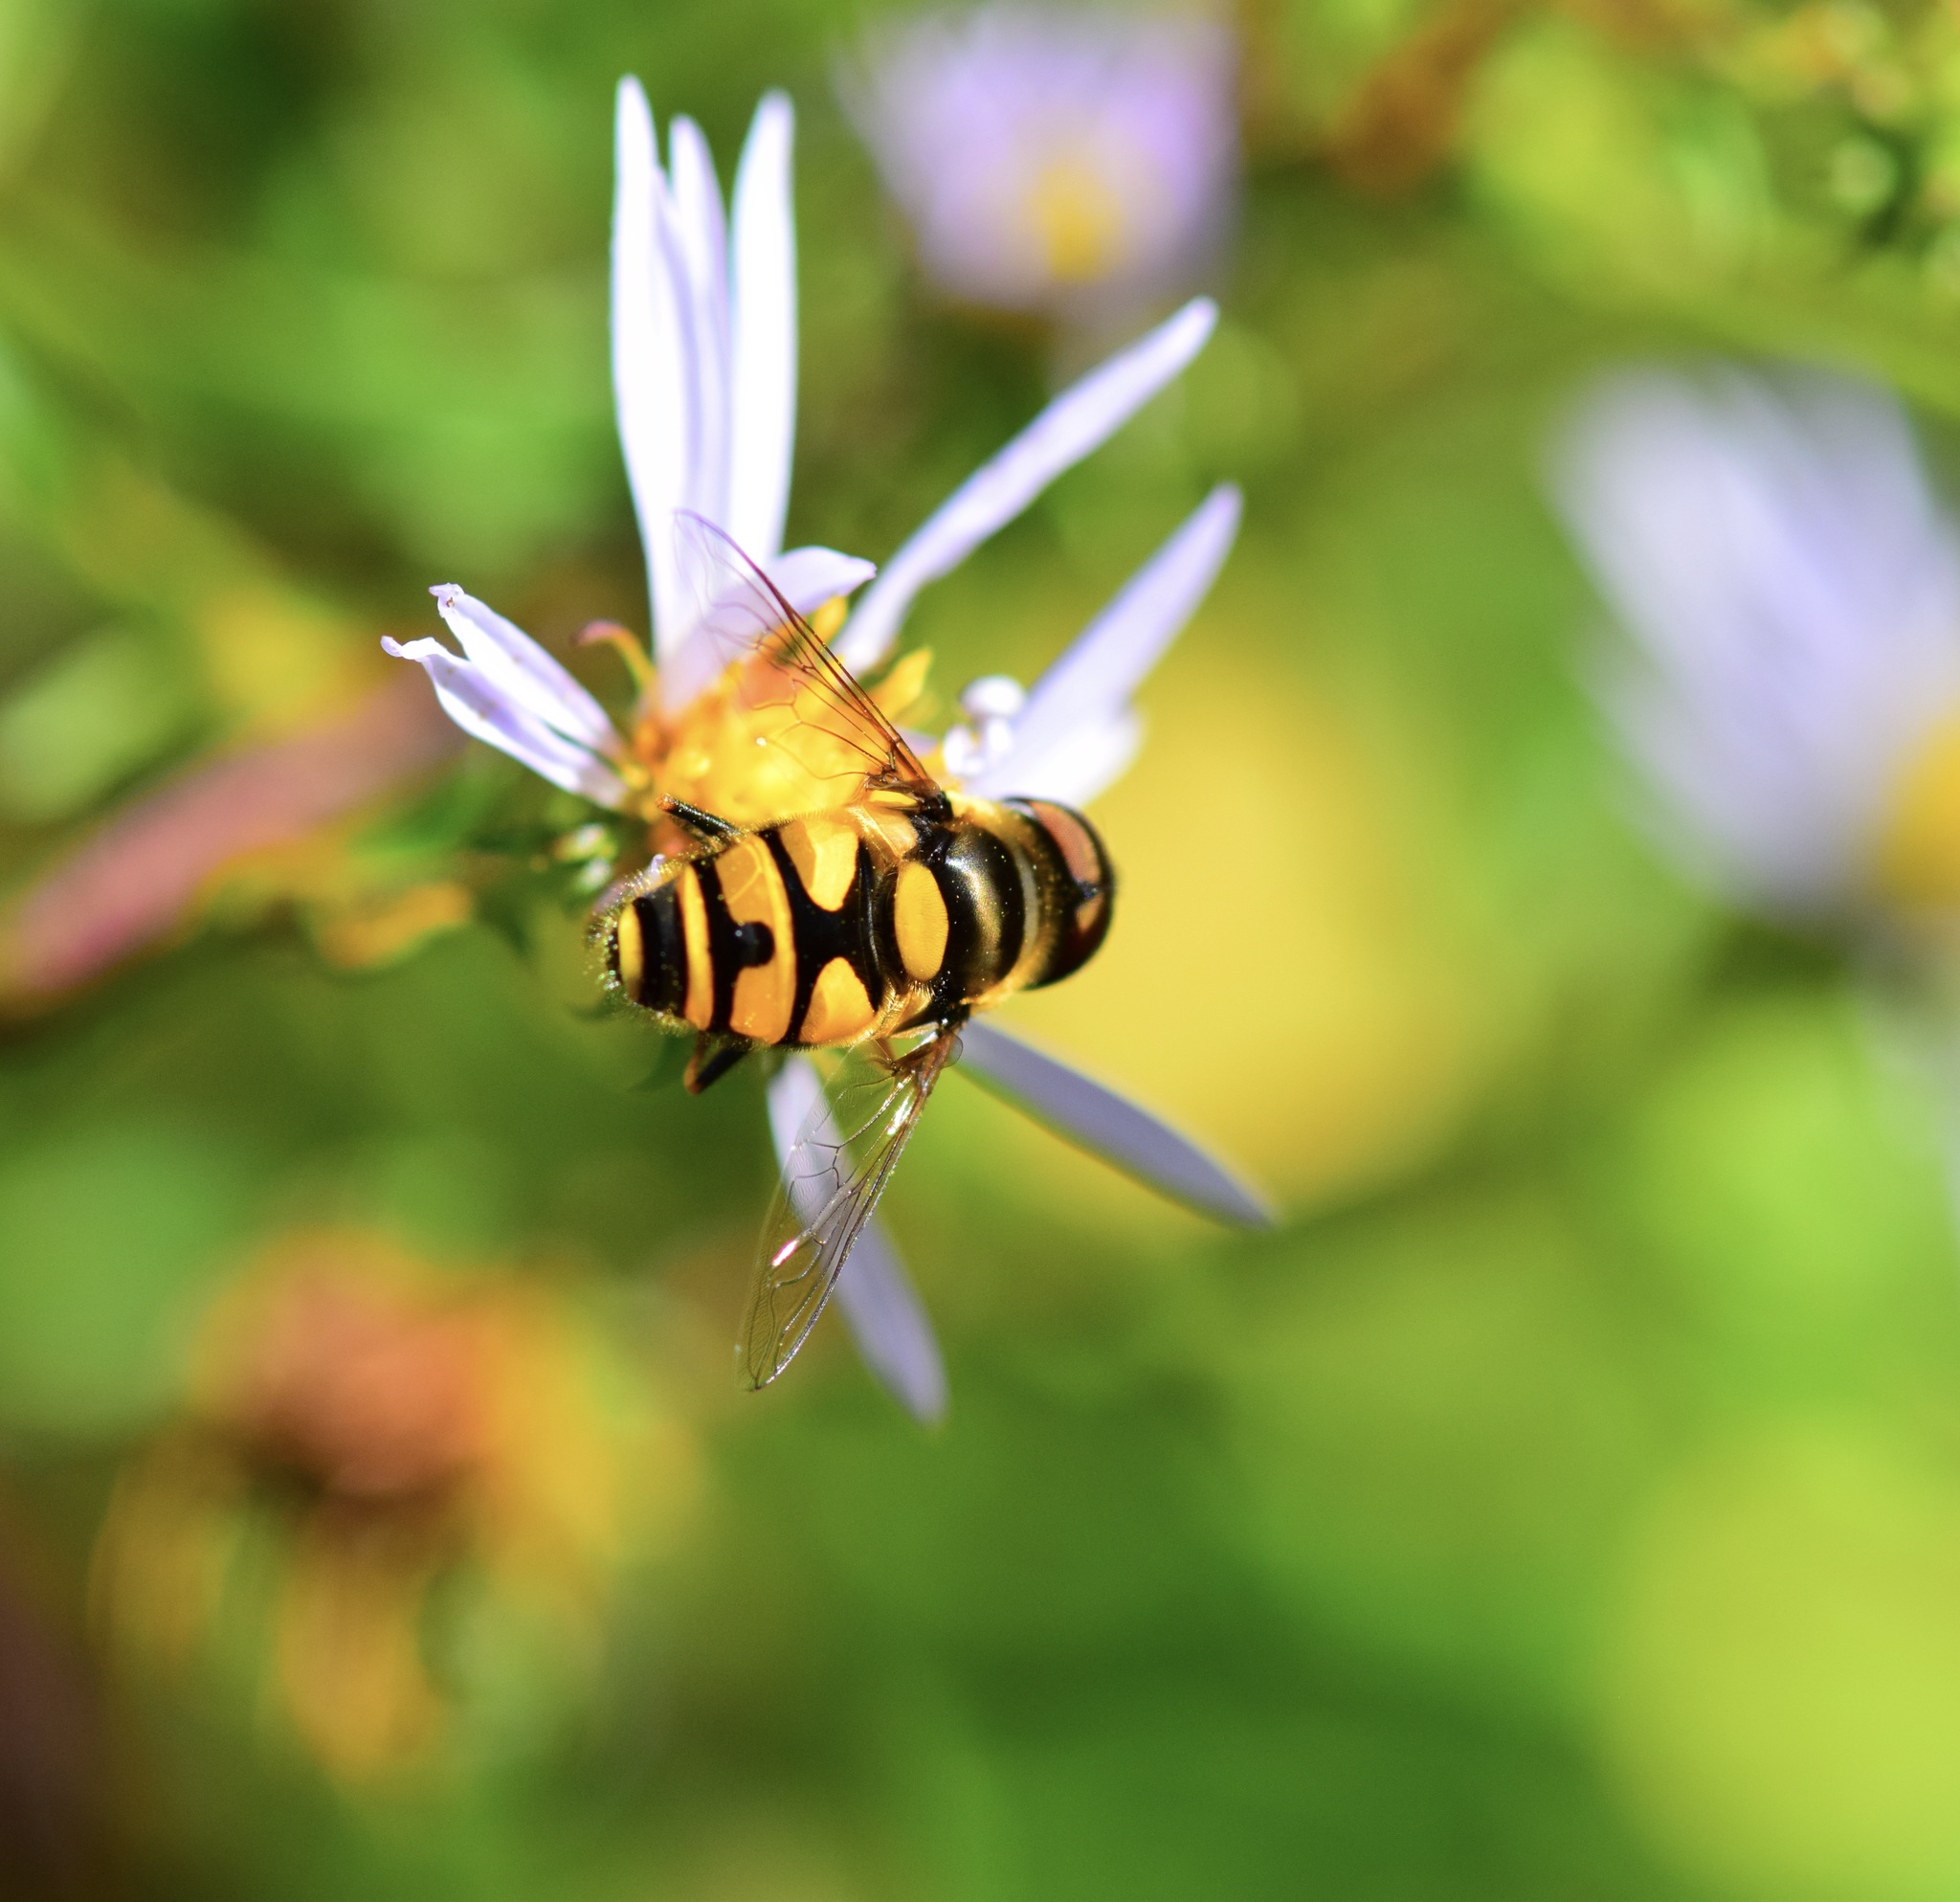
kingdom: Animalia
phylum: Arthropoda
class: Insecta
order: Diptera
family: Syrphidae
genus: Eristalis
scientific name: Eristalis transversa
